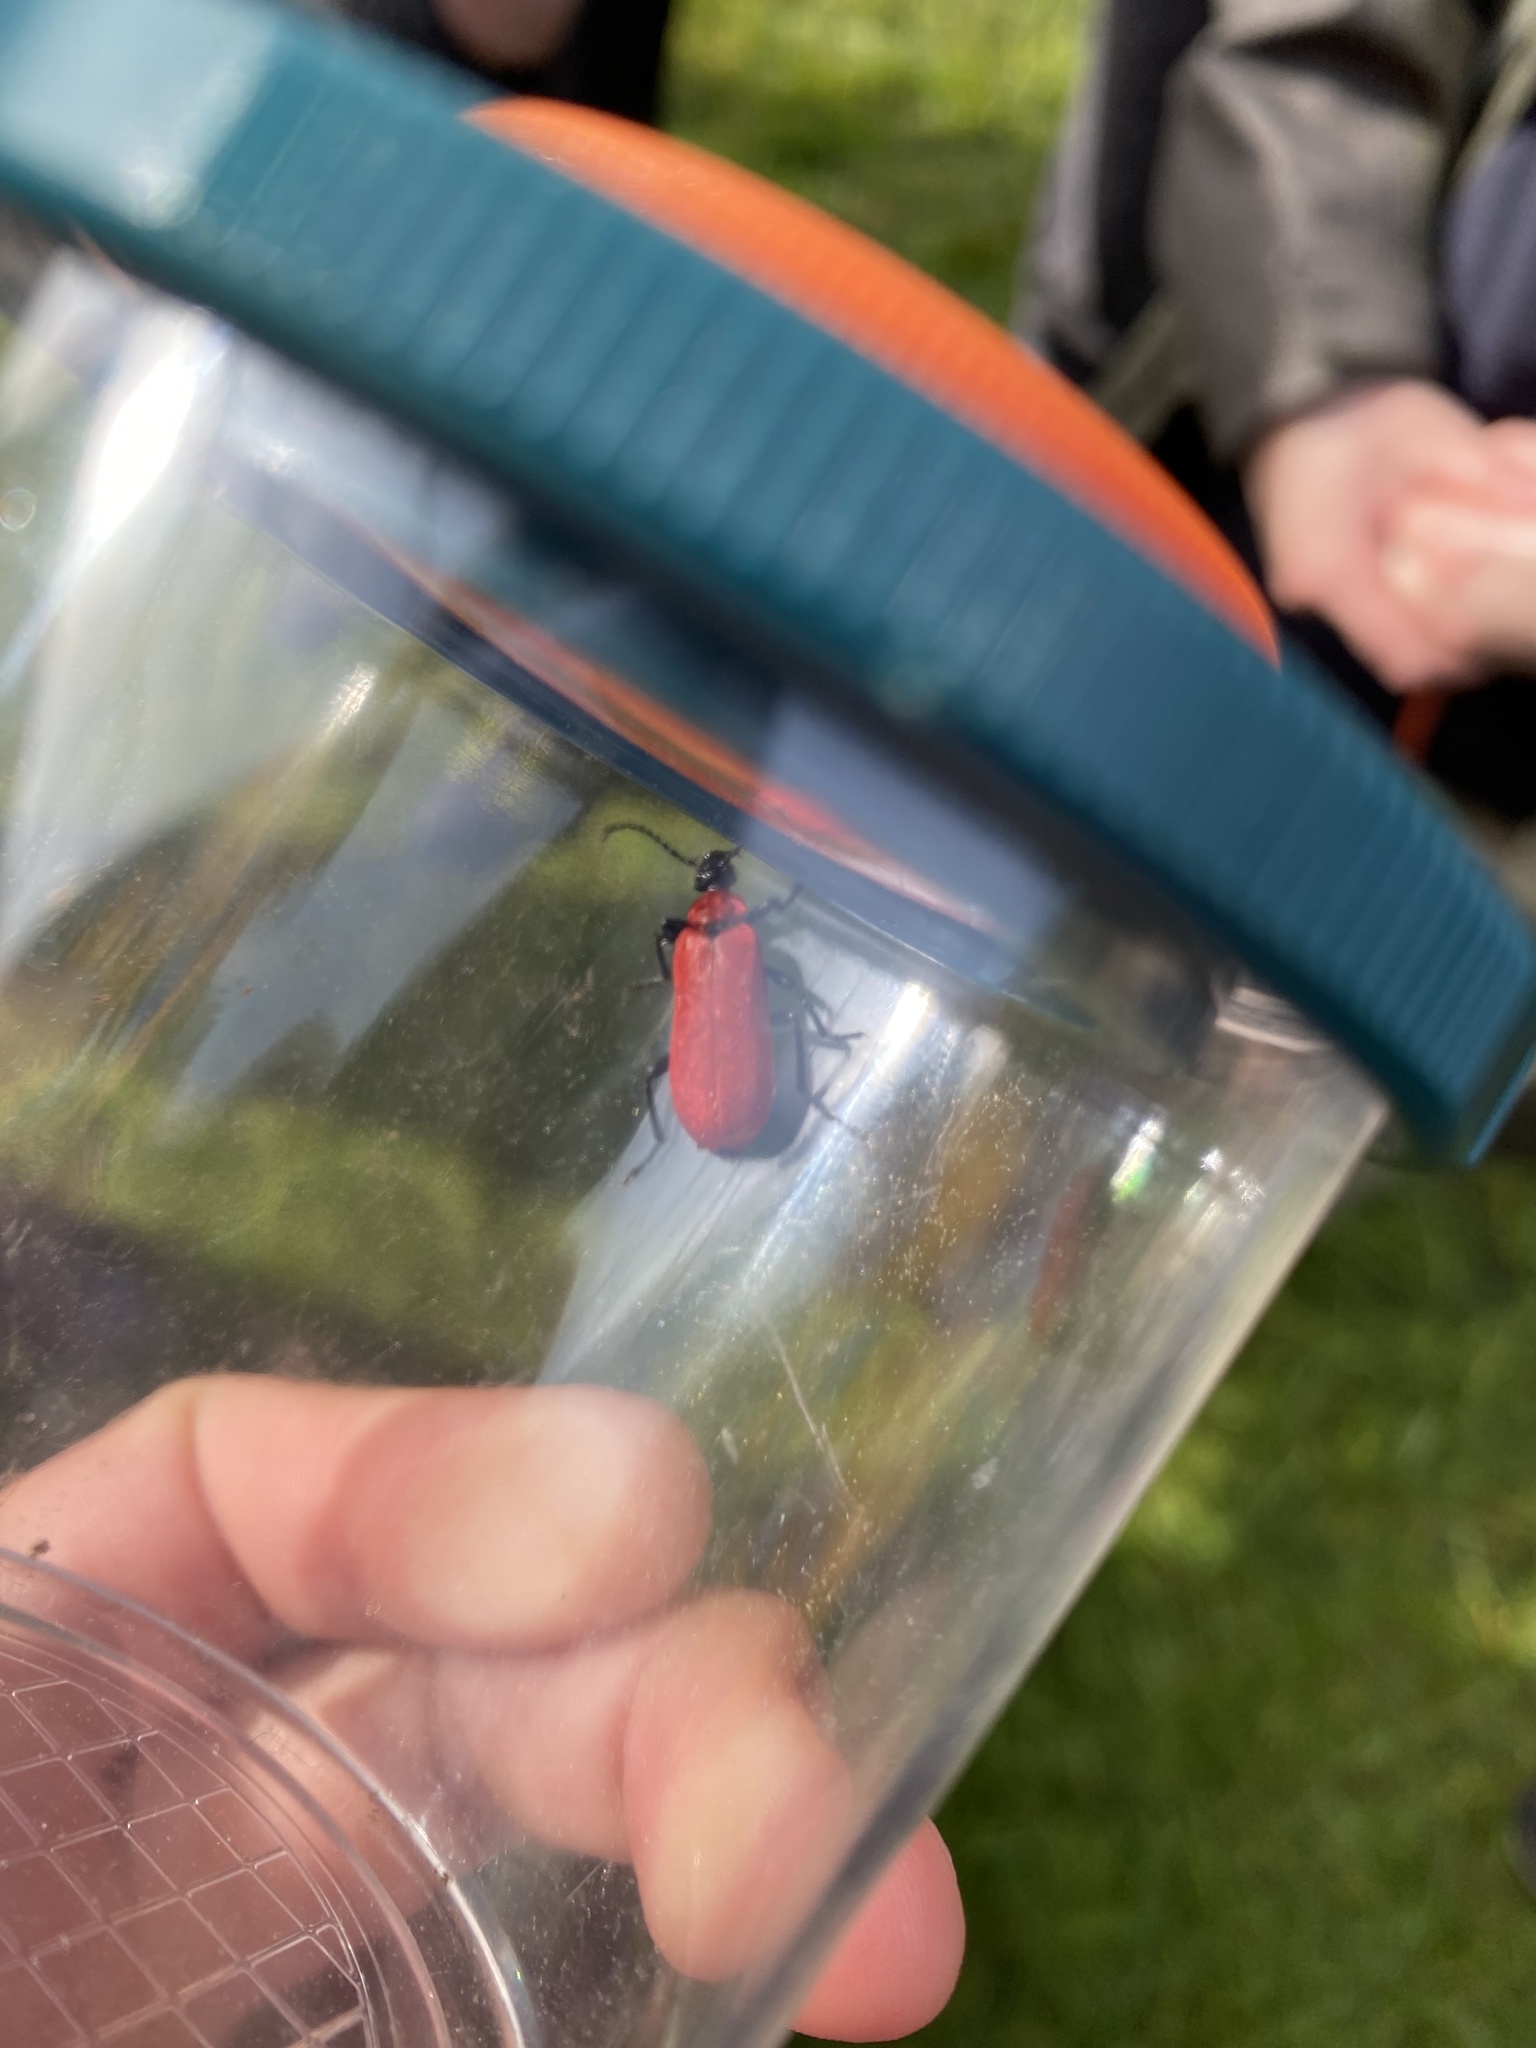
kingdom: Animalia
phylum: Arthropoda
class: Insecta
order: Coleoptera
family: Pyrochroidae
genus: Pyrochroa
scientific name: Pyrochroa coccinea
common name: Black-headed cardinal beetle
